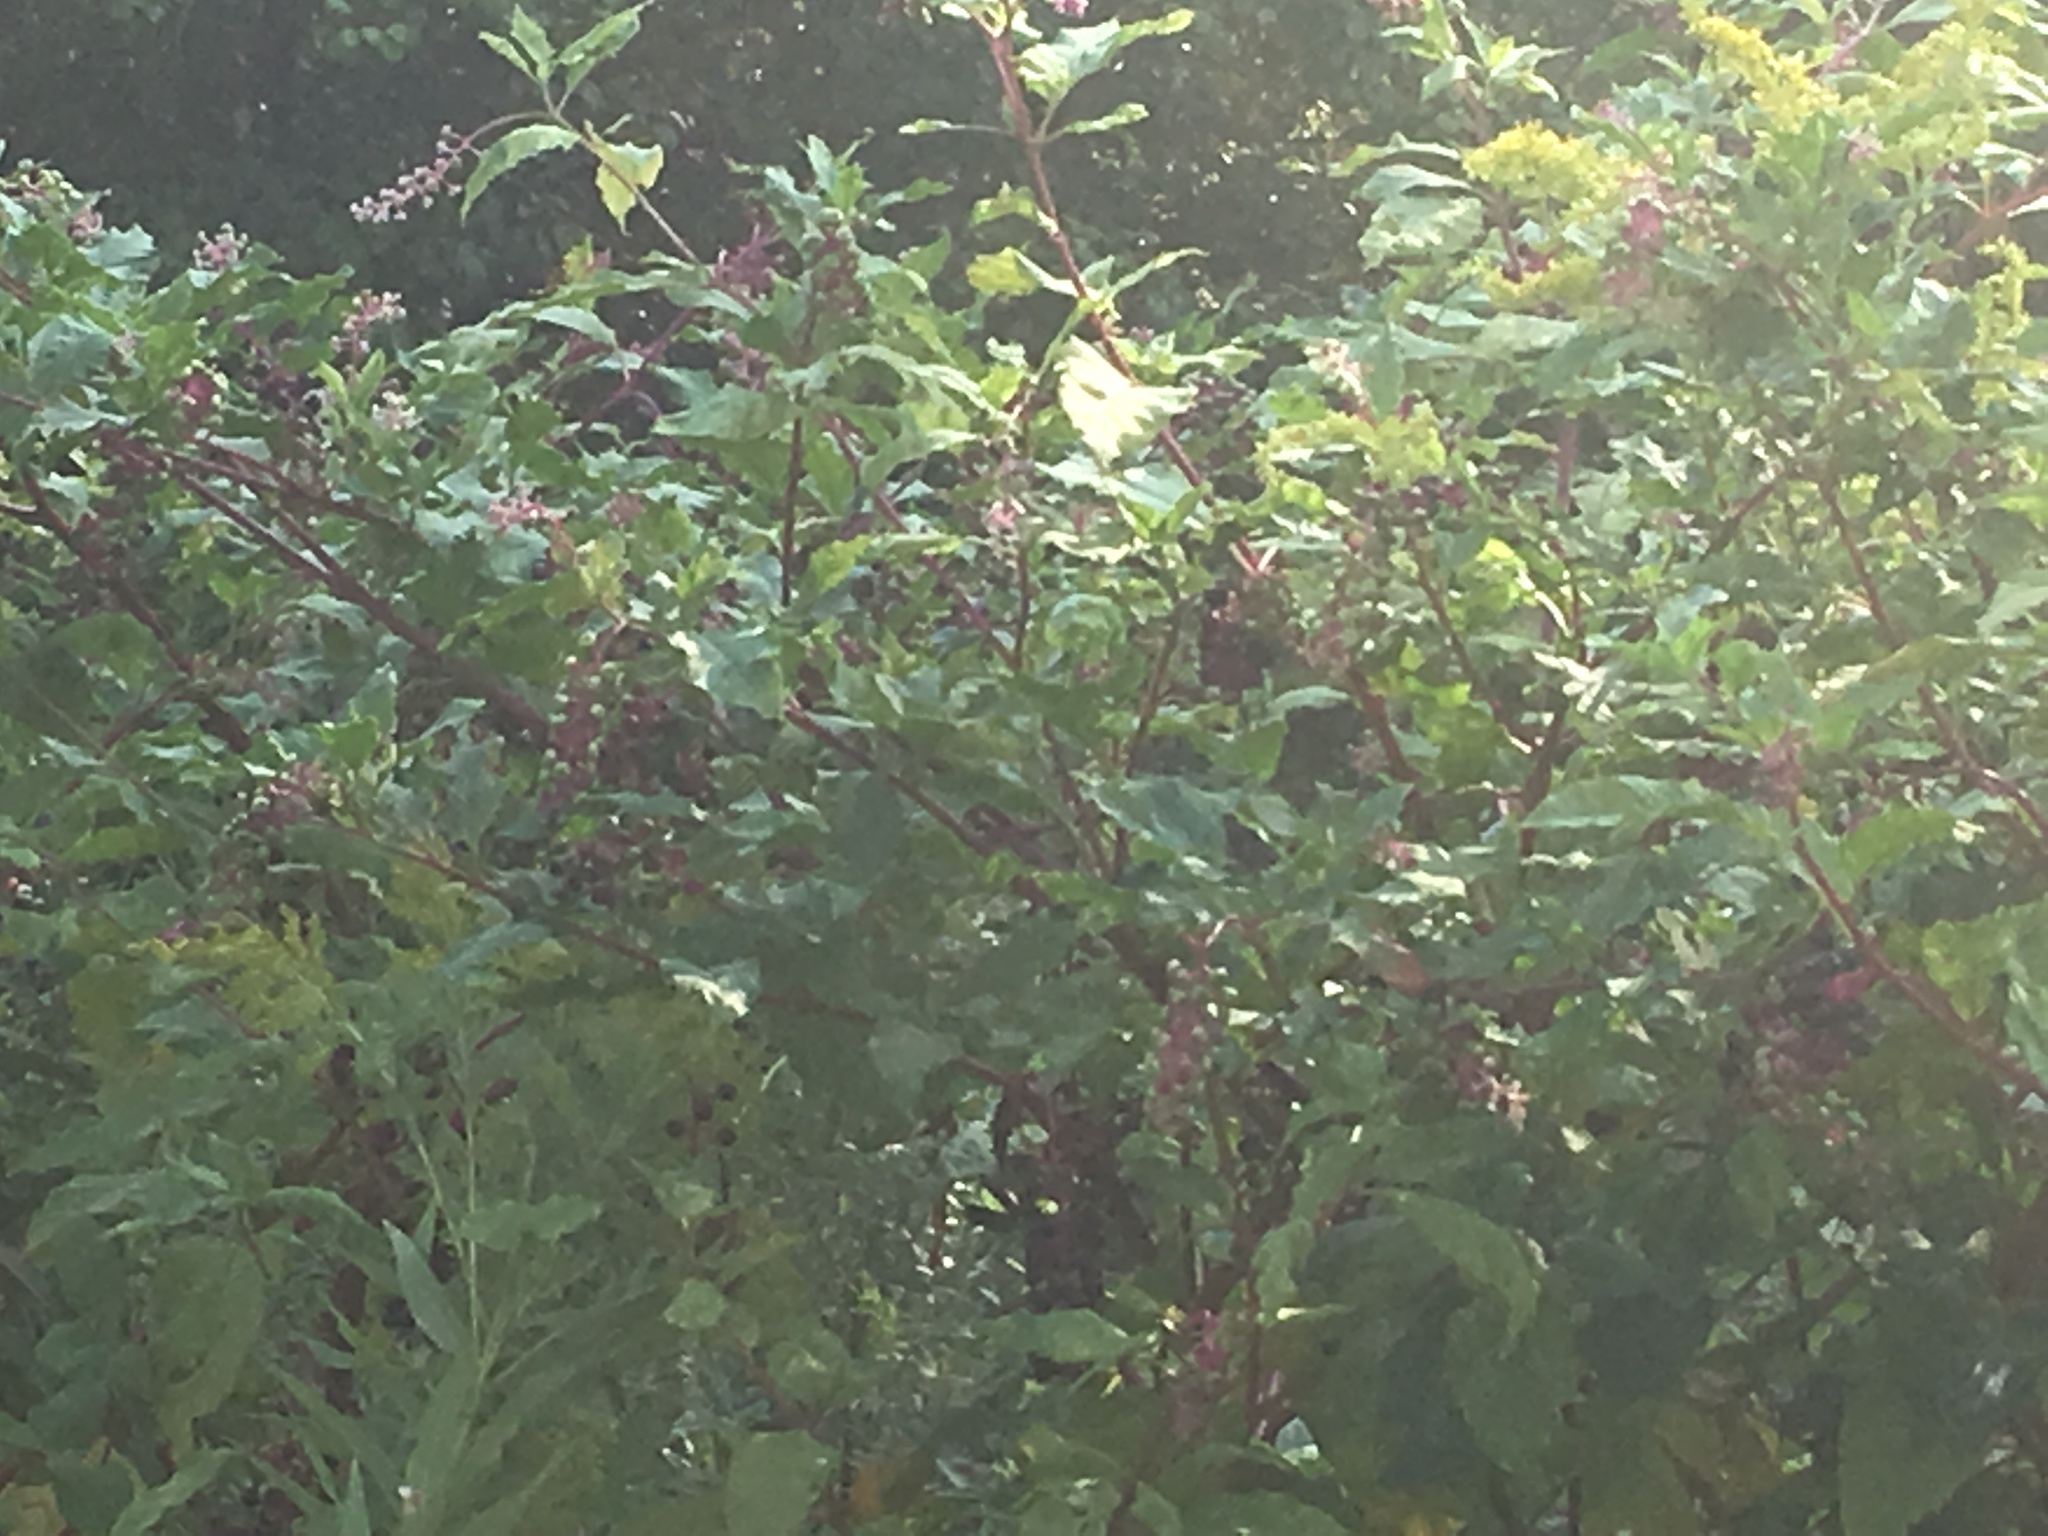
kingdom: Plantae
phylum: Tracheophyta
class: Magnoliopsida
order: Caryophyllales
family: Phytolaccaceae
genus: Phytolacca
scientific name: Phytolacca americana
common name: American pokeweed
